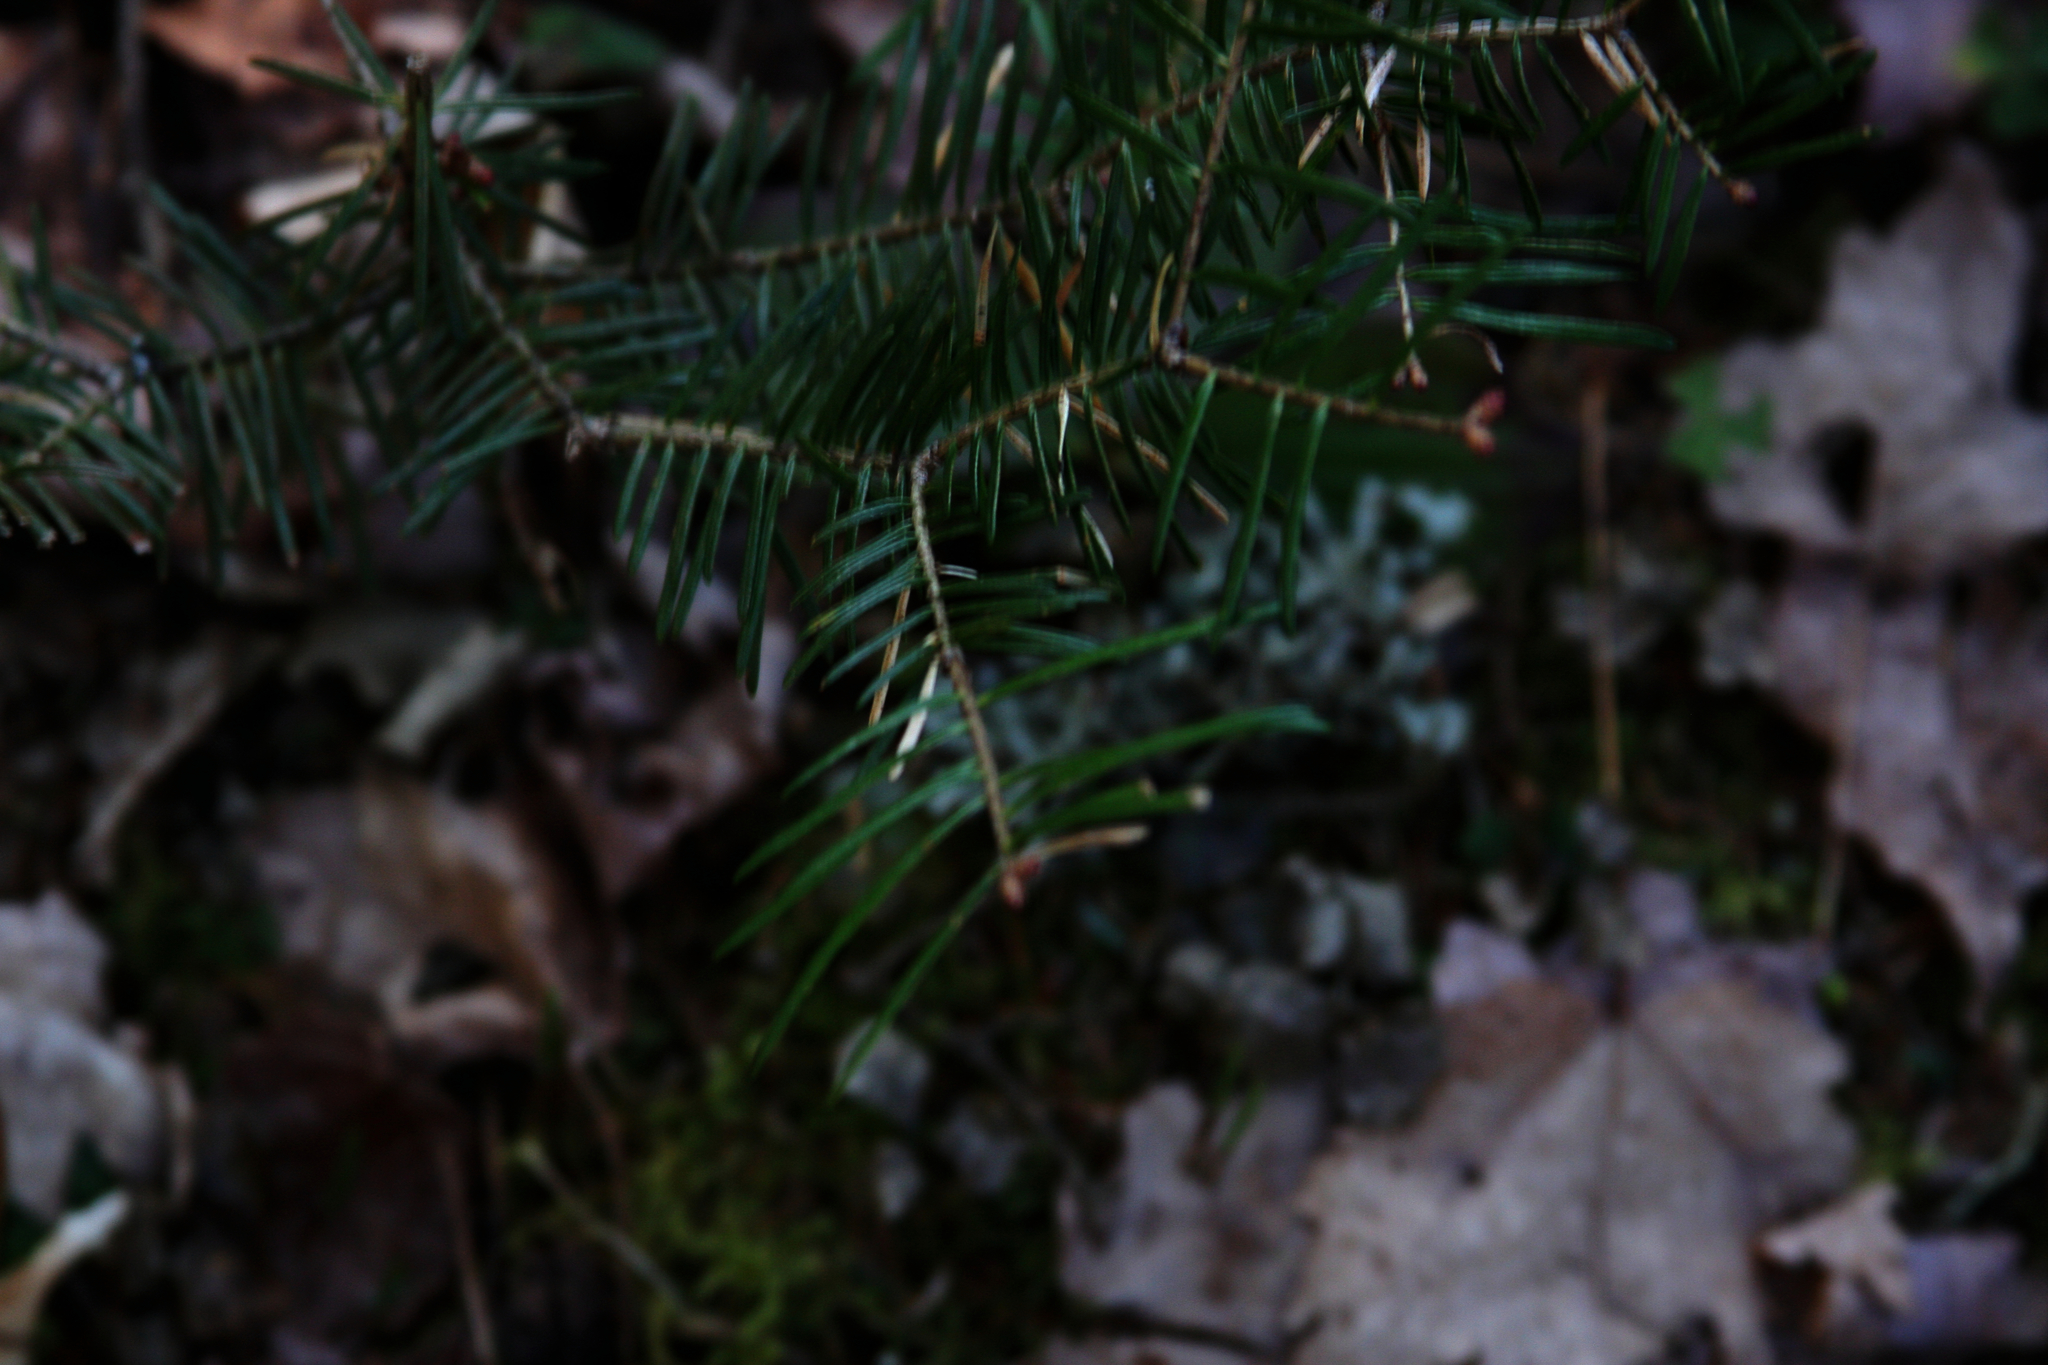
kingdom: Plantae
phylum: Tracheophyta
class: Pinopsida
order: Pinales
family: Pinaceae
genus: Abies
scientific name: Abies balsamea
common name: Balsam fir
